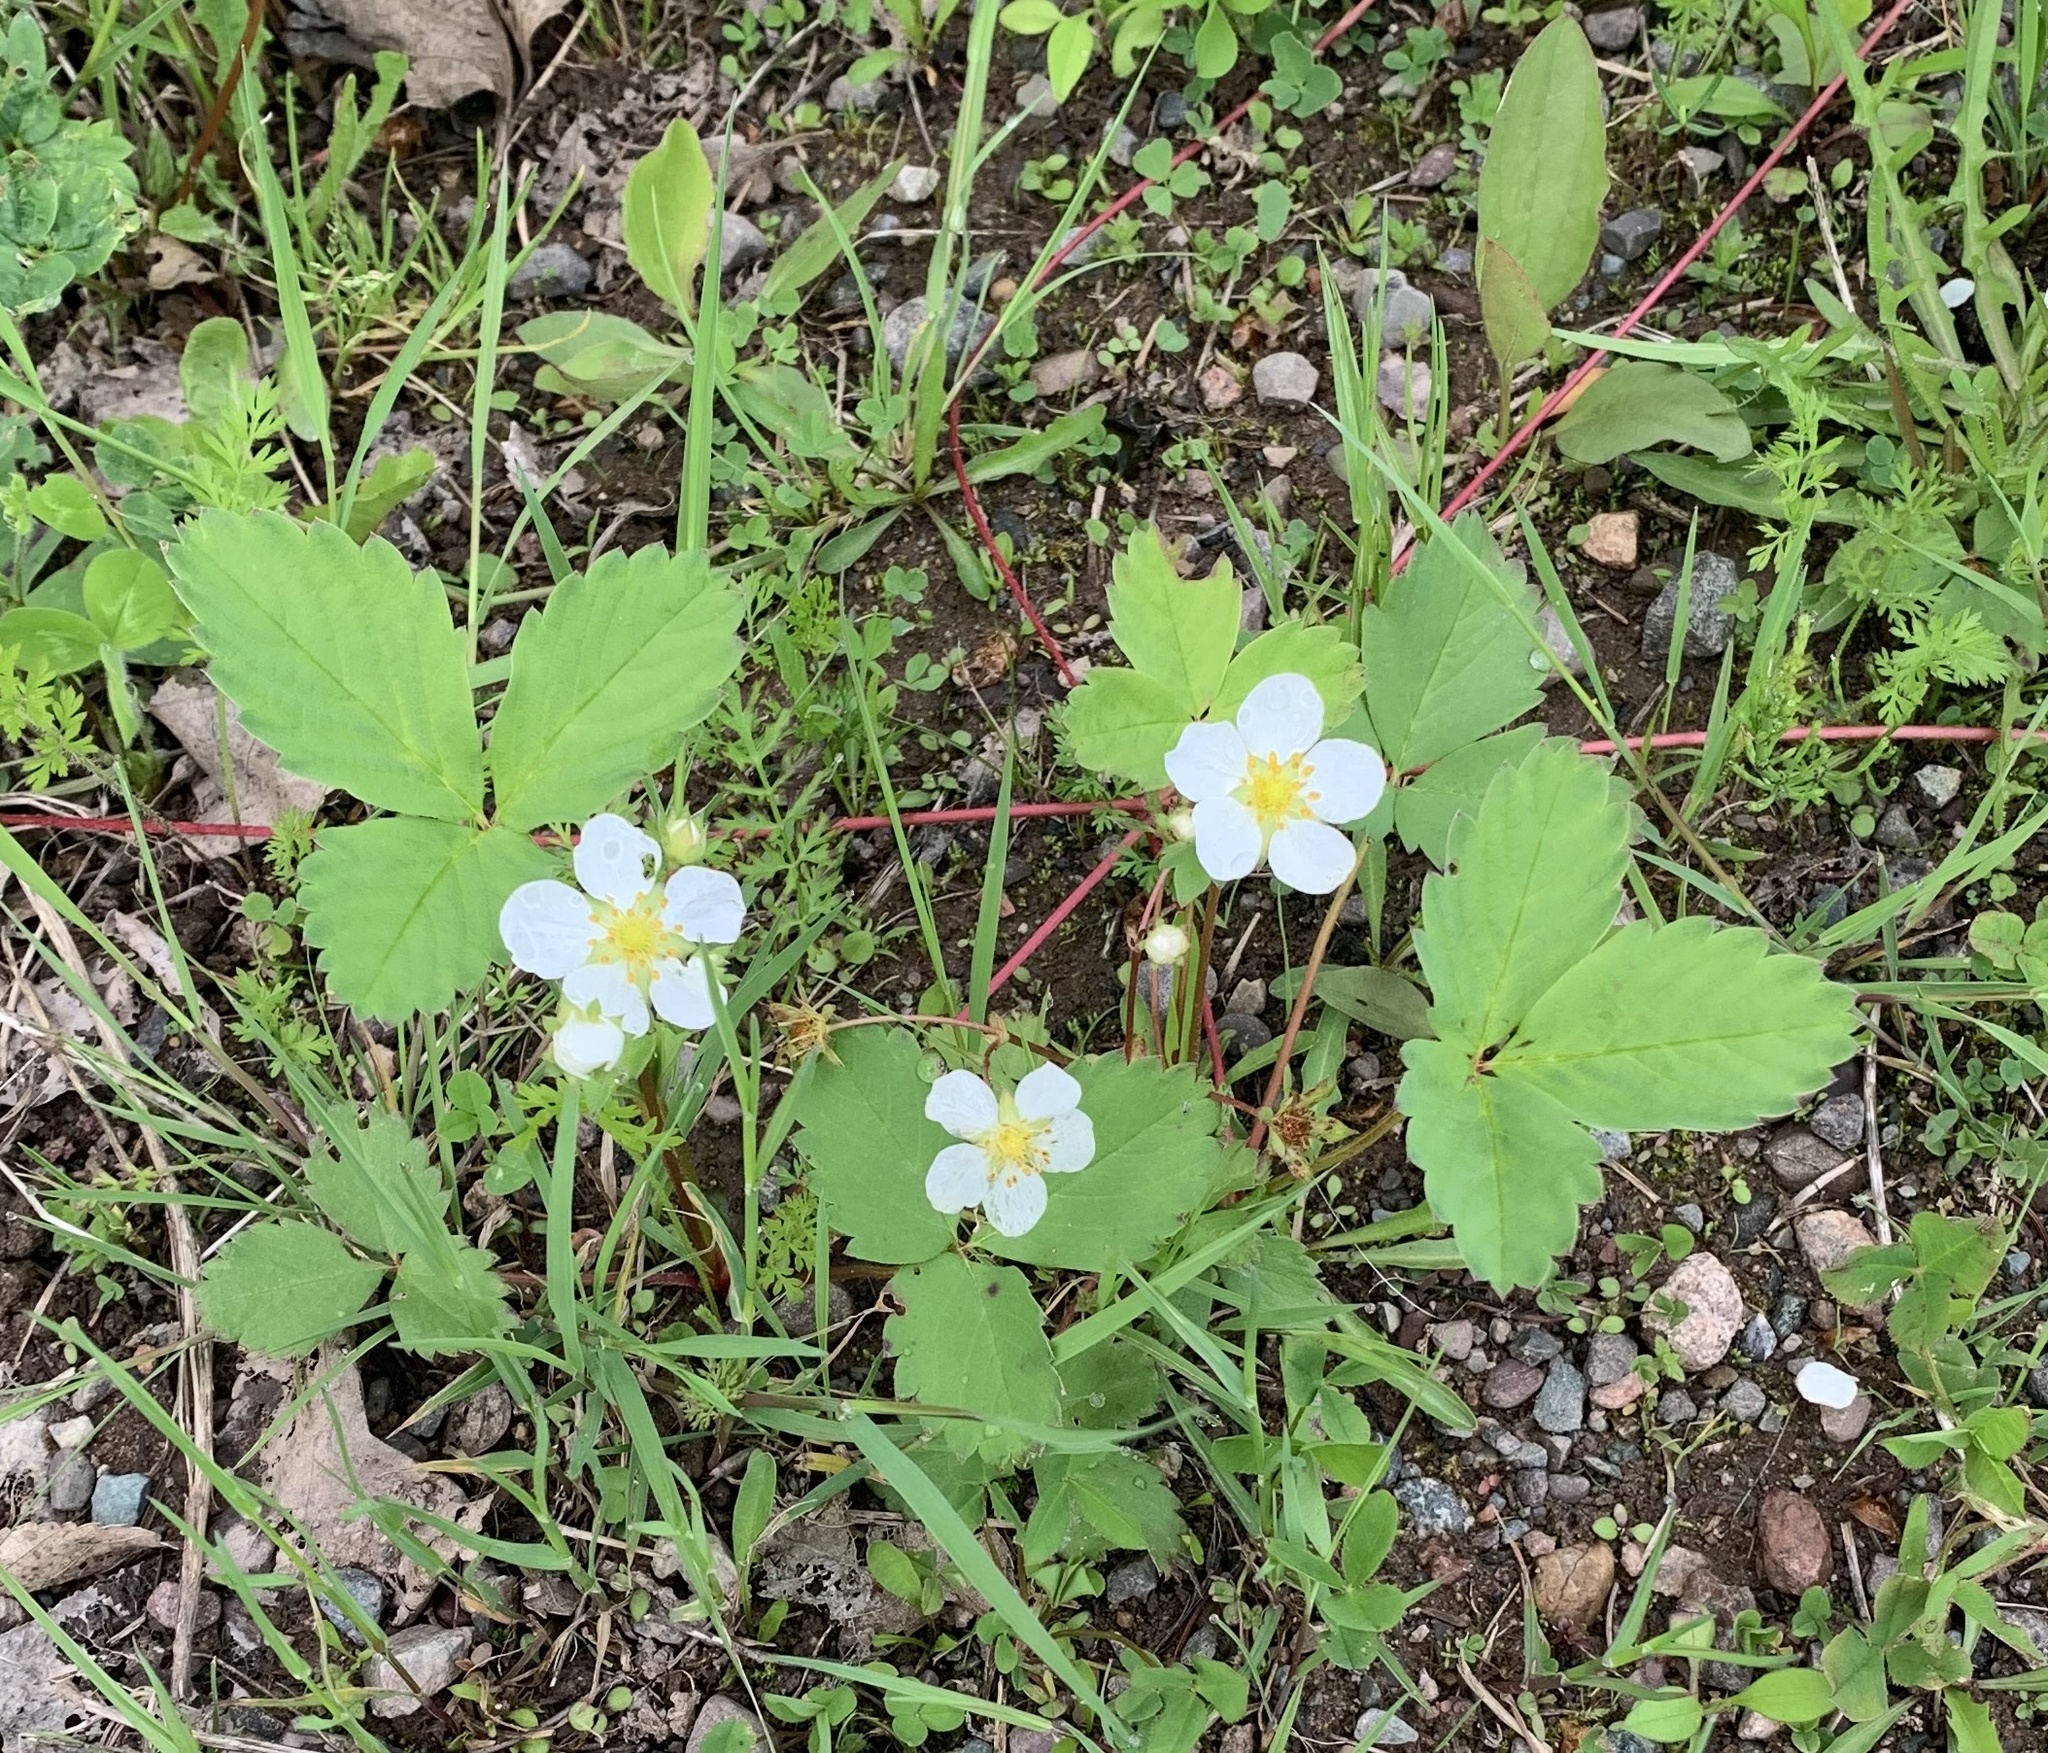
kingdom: Plantae
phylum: Tracheophyta
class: Magnoliopsida
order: Rosales
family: Rosaceae
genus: Fragaria
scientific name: Fragaria virginiana
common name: Thickleaved wild strawberry
